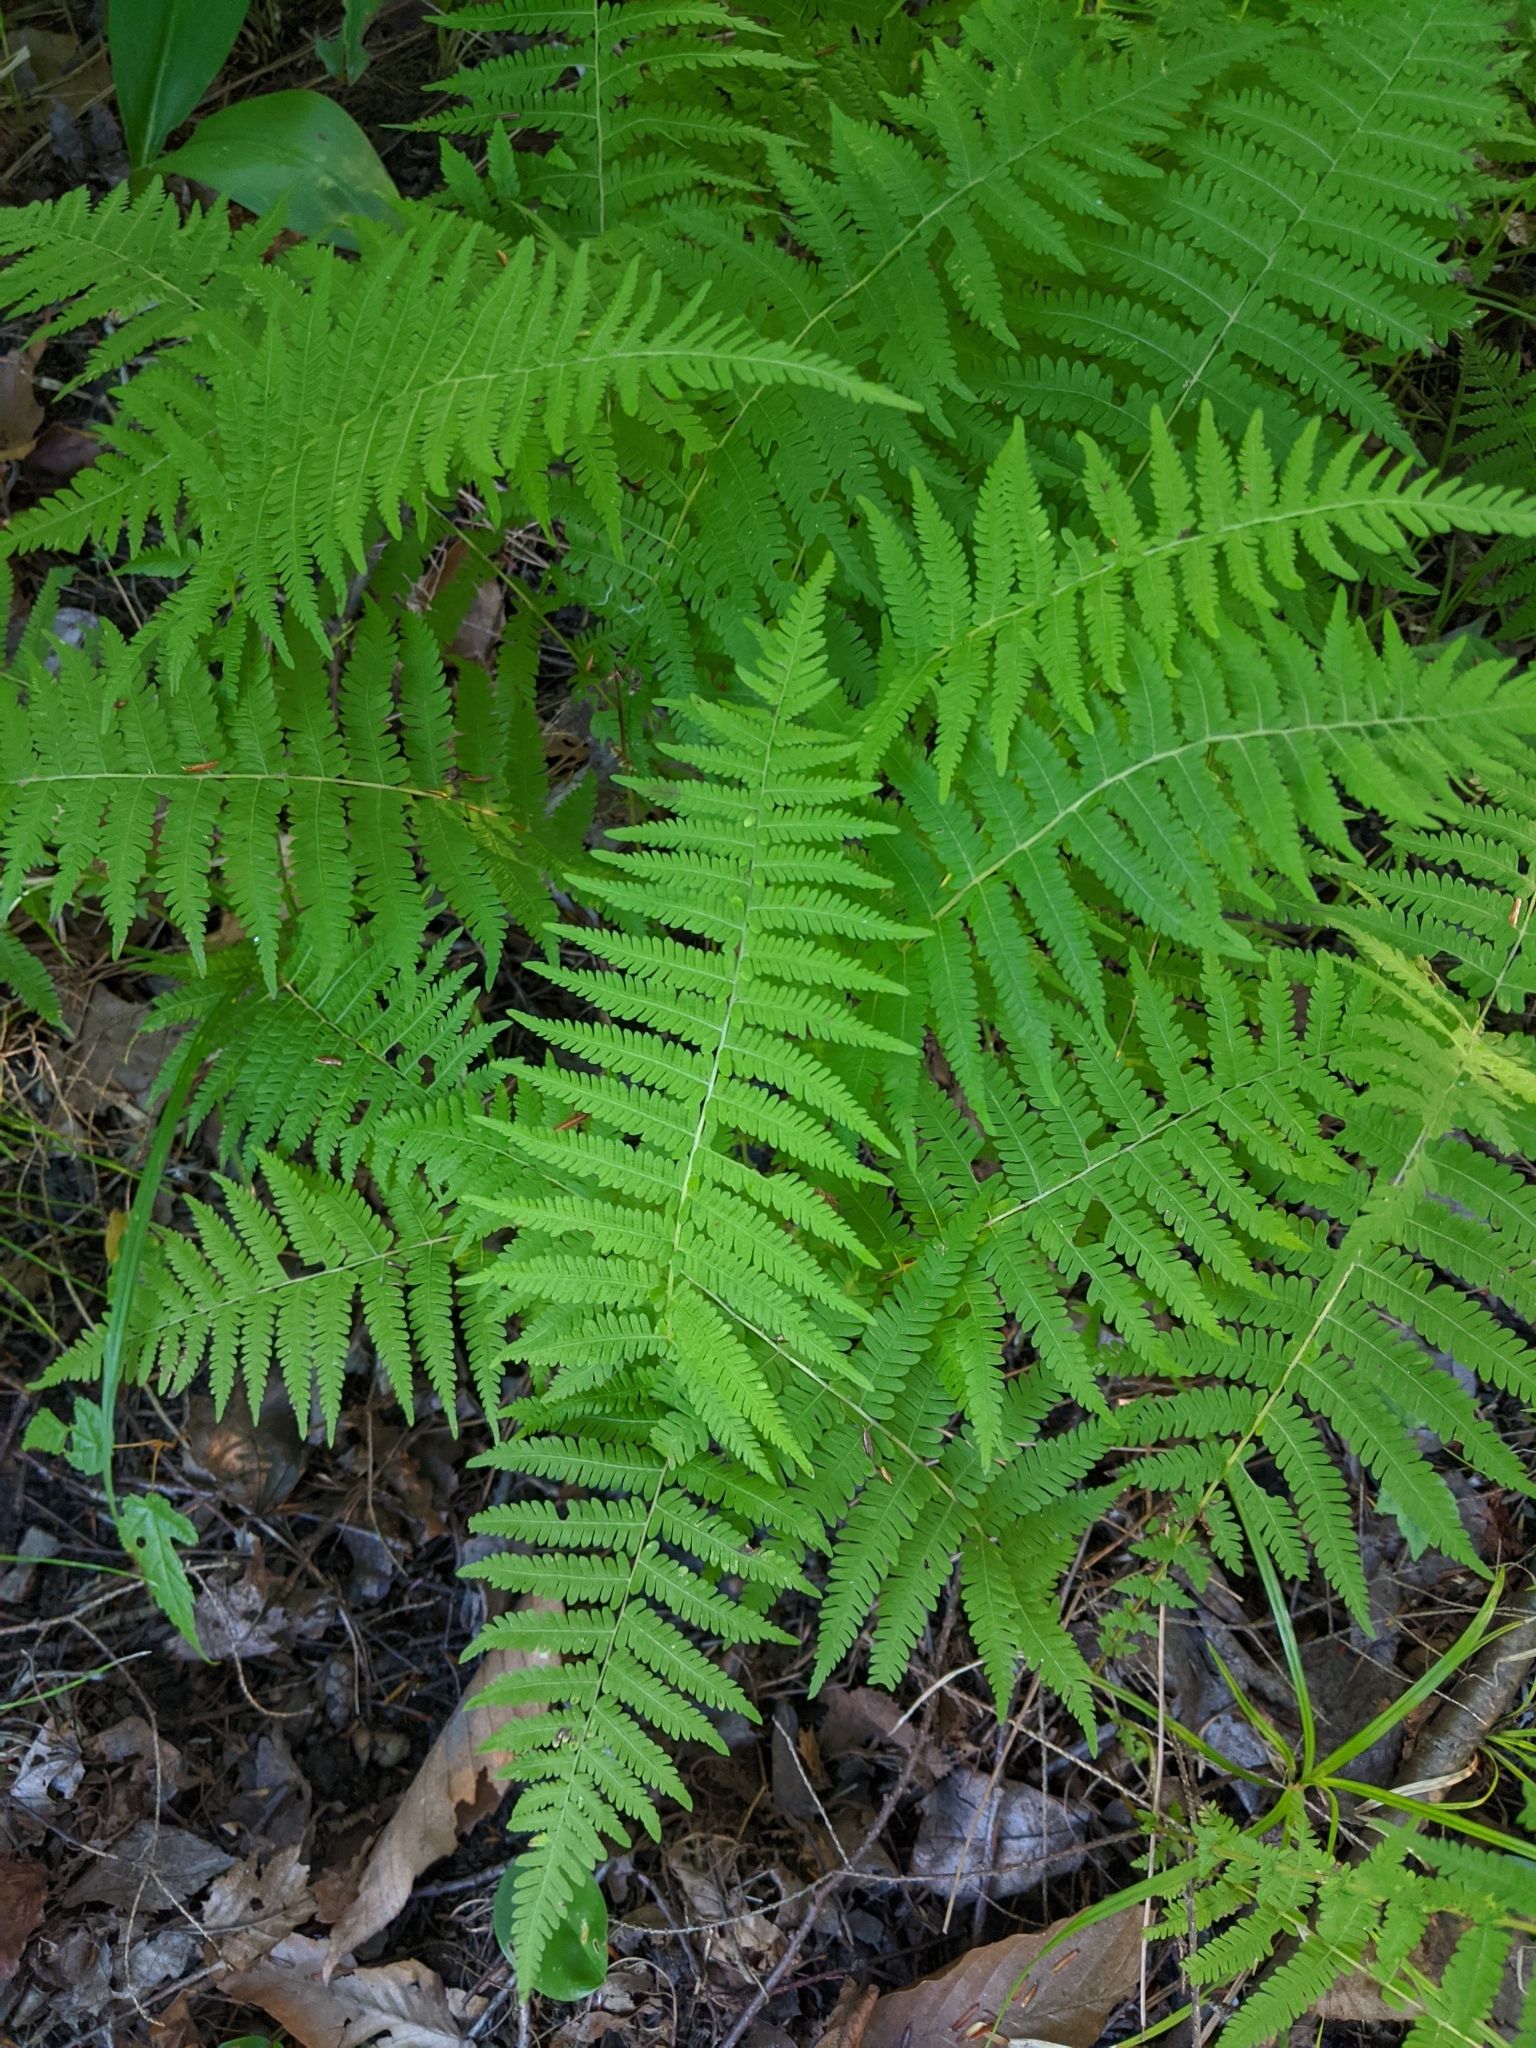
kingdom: Plantae
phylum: Tracheophyta
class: Polypodiopsida
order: Polypodiales
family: Thelypteridaceae
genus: Amauropelta
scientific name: Amauropelta noveboracensis
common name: New york fern
